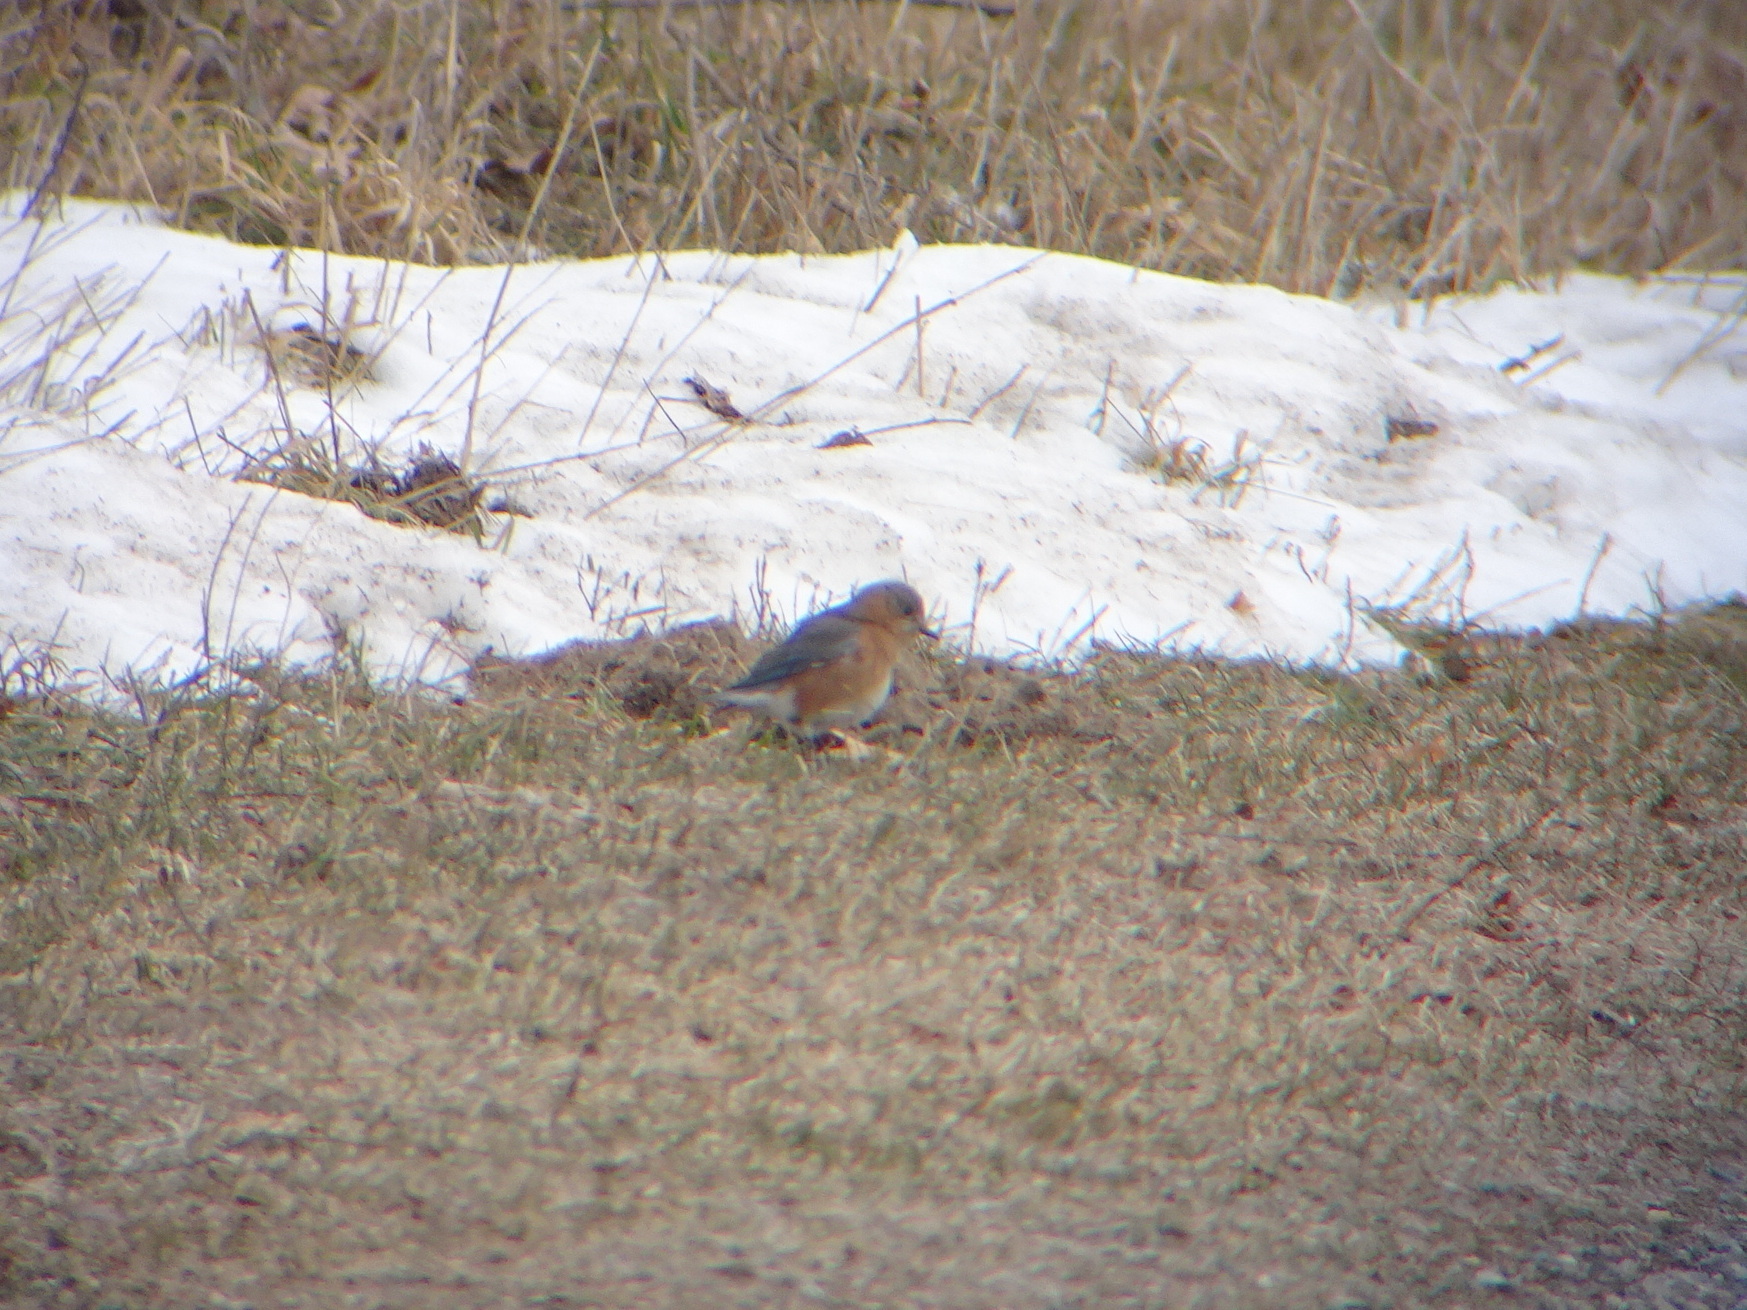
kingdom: Animalia
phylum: Chordata
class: Aves
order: Passeriformes
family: Turdidae
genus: Sialia
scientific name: Sialia sialis
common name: Eastern bluebird
